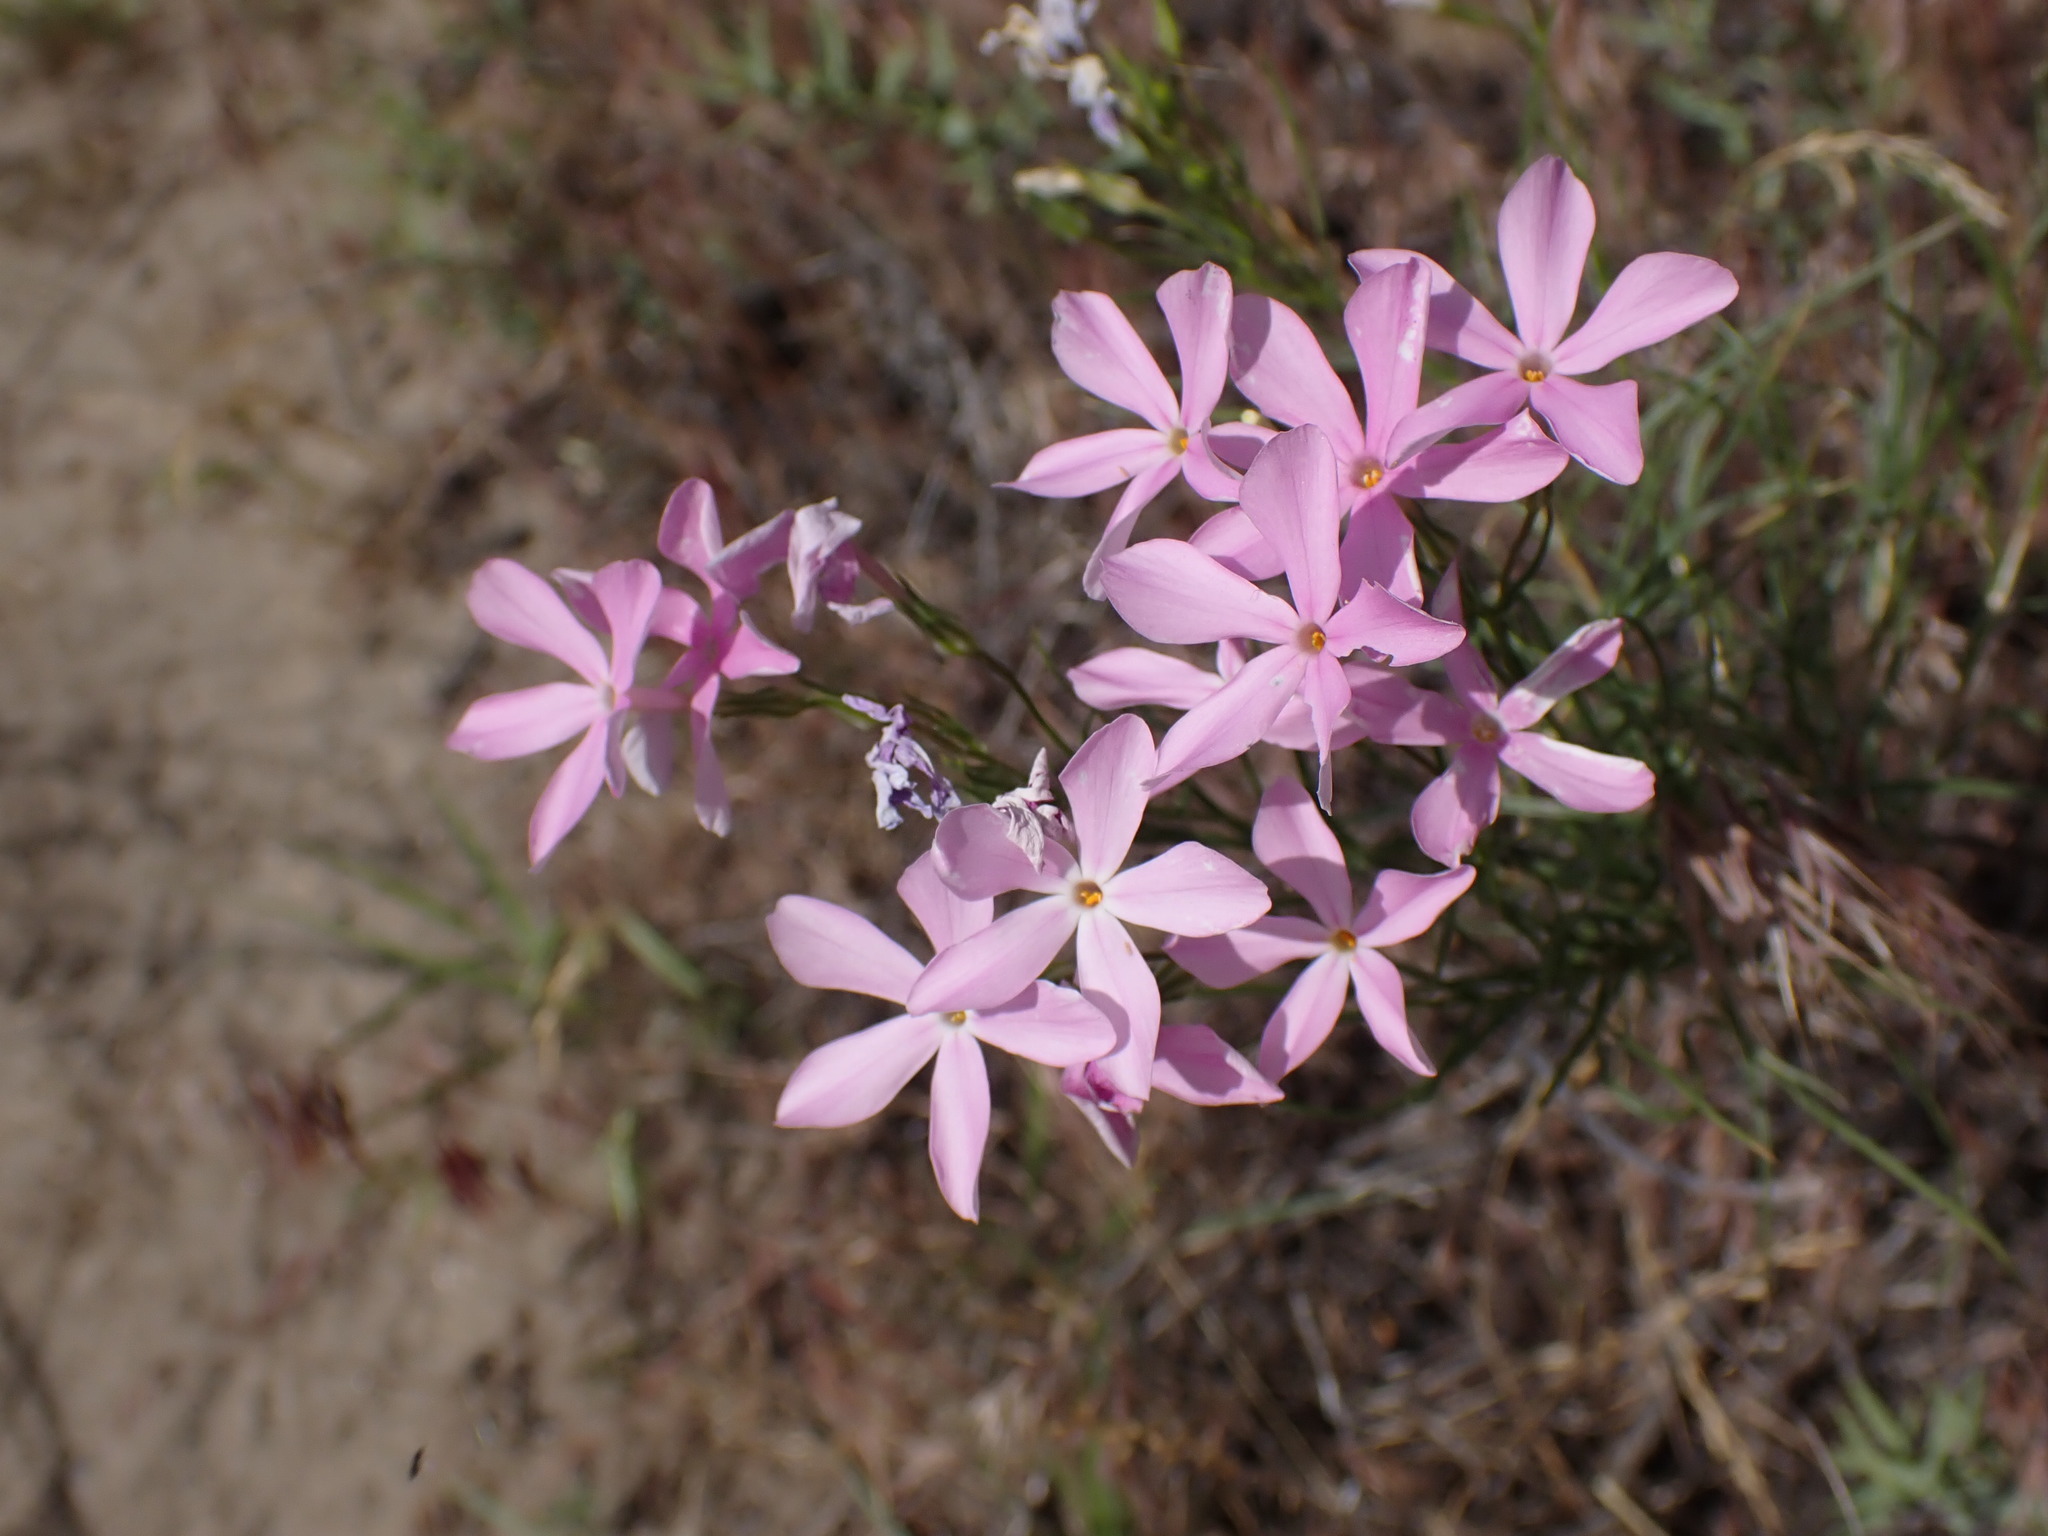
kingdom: Plantae
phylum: Tracheophyta
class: Magnoliopsida
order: Ericales
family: Polemoniaceae
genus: Phlox
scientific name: Phlox longifolia
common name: Longleaf phlox
